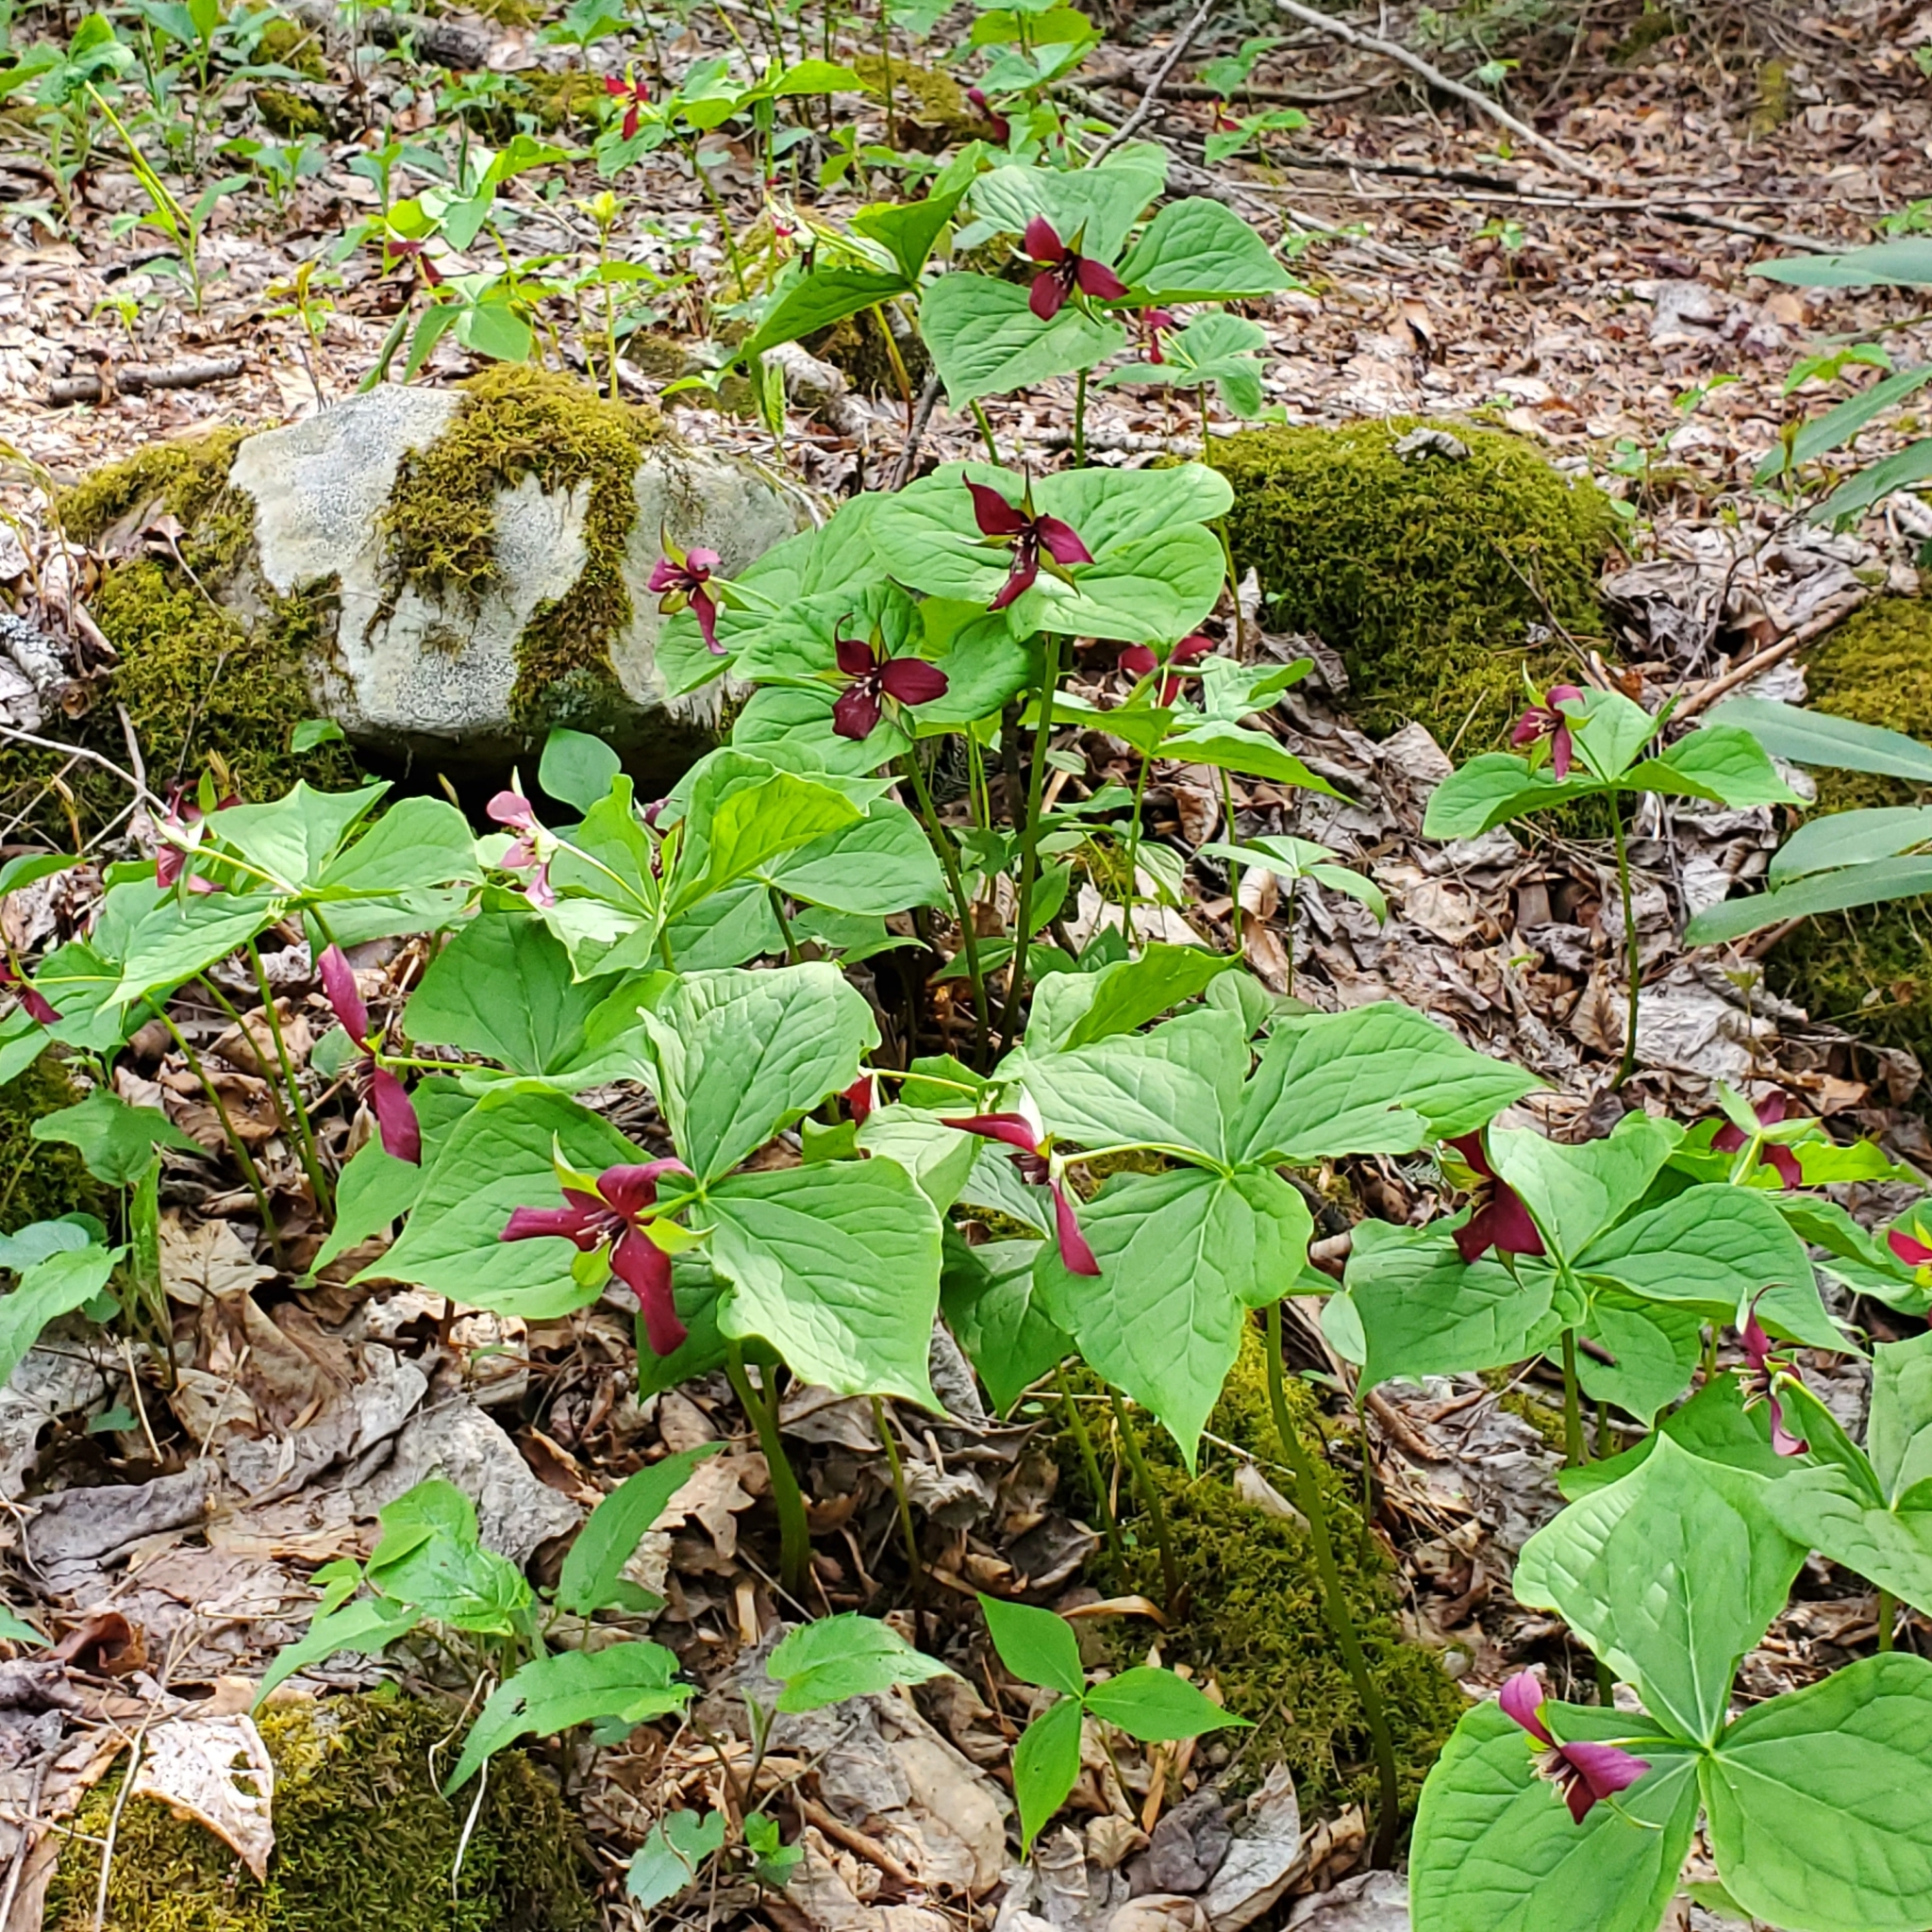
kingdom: Plantae
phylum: Tracheophyta
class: Liliopsida
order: Liliales
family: Melanthiaceae
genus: Trillium
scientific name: Trillium erectum
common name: Purple trillium
